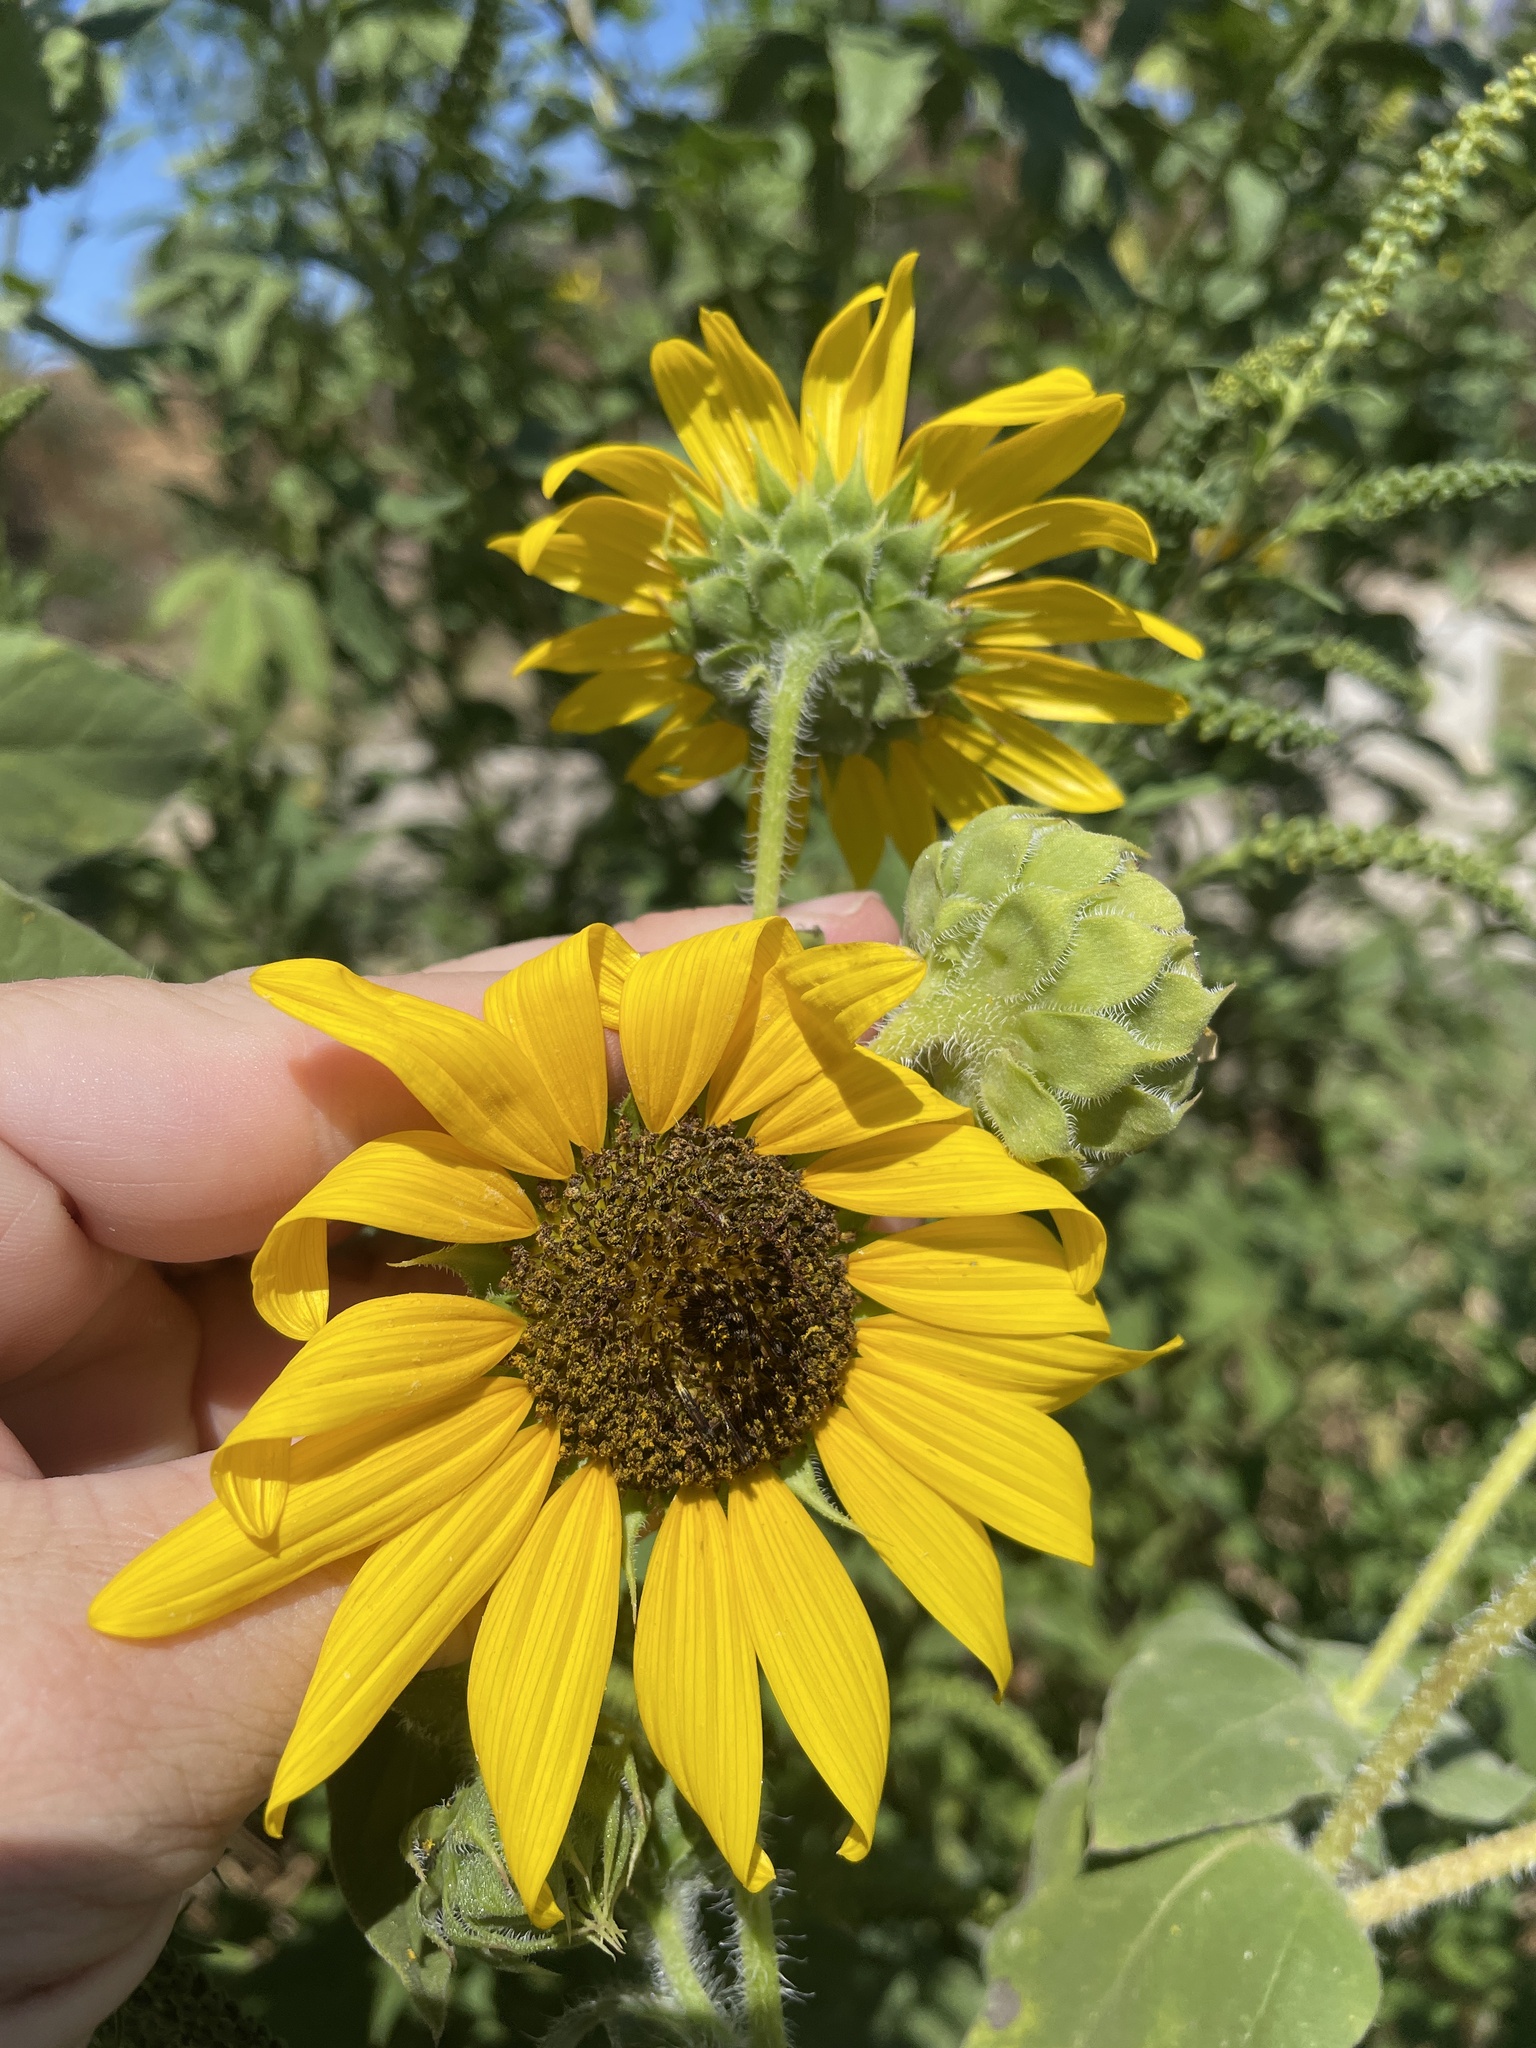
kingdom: Plantae
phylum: Tracheophyta
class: Magnoliopsida
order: Asterales
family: Asteraceae
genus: Helianthus
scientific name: Helianthus annuus
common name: Sunflower
